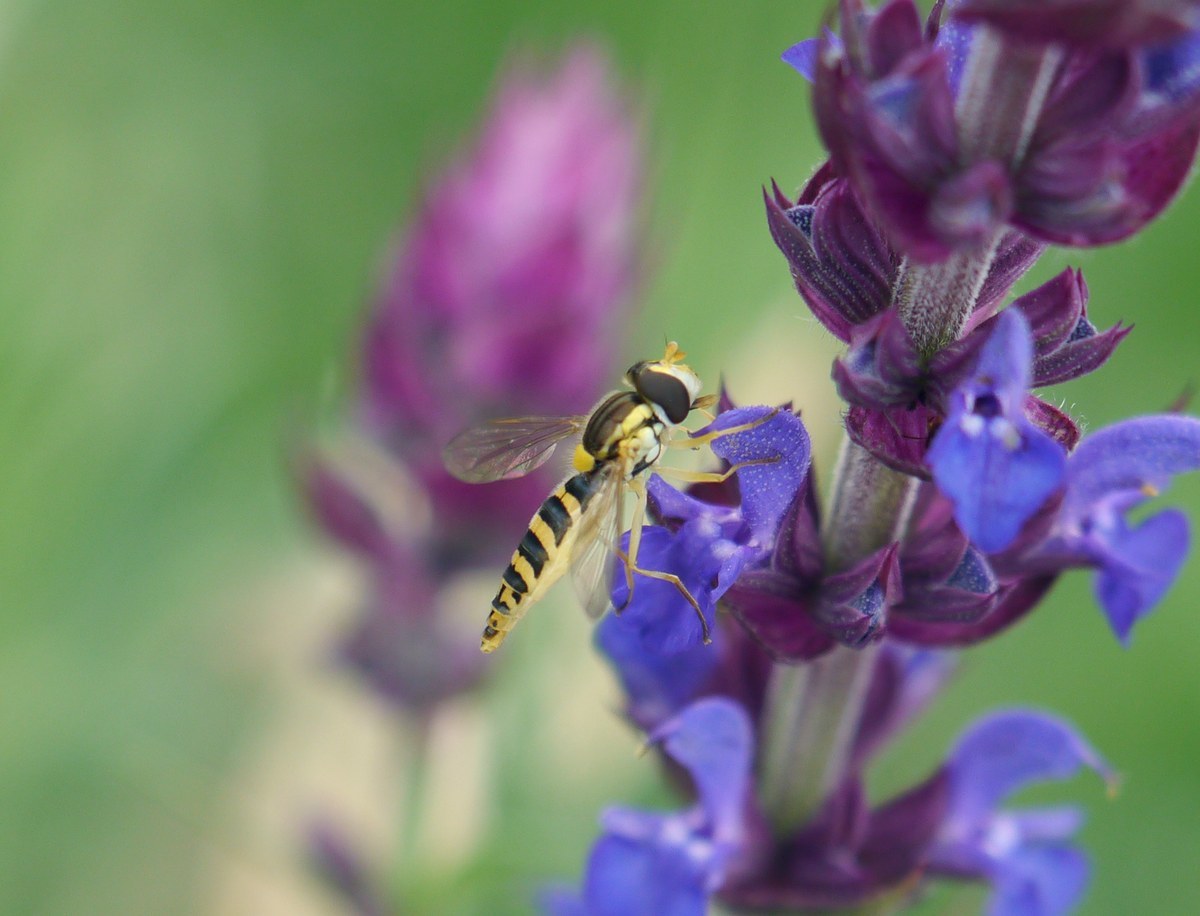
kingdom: Animalia
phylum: Arthropoda
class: Insecta
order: Diptera
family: Syrphidae
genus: Sphaerophoria
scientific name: Sphaerophoria
